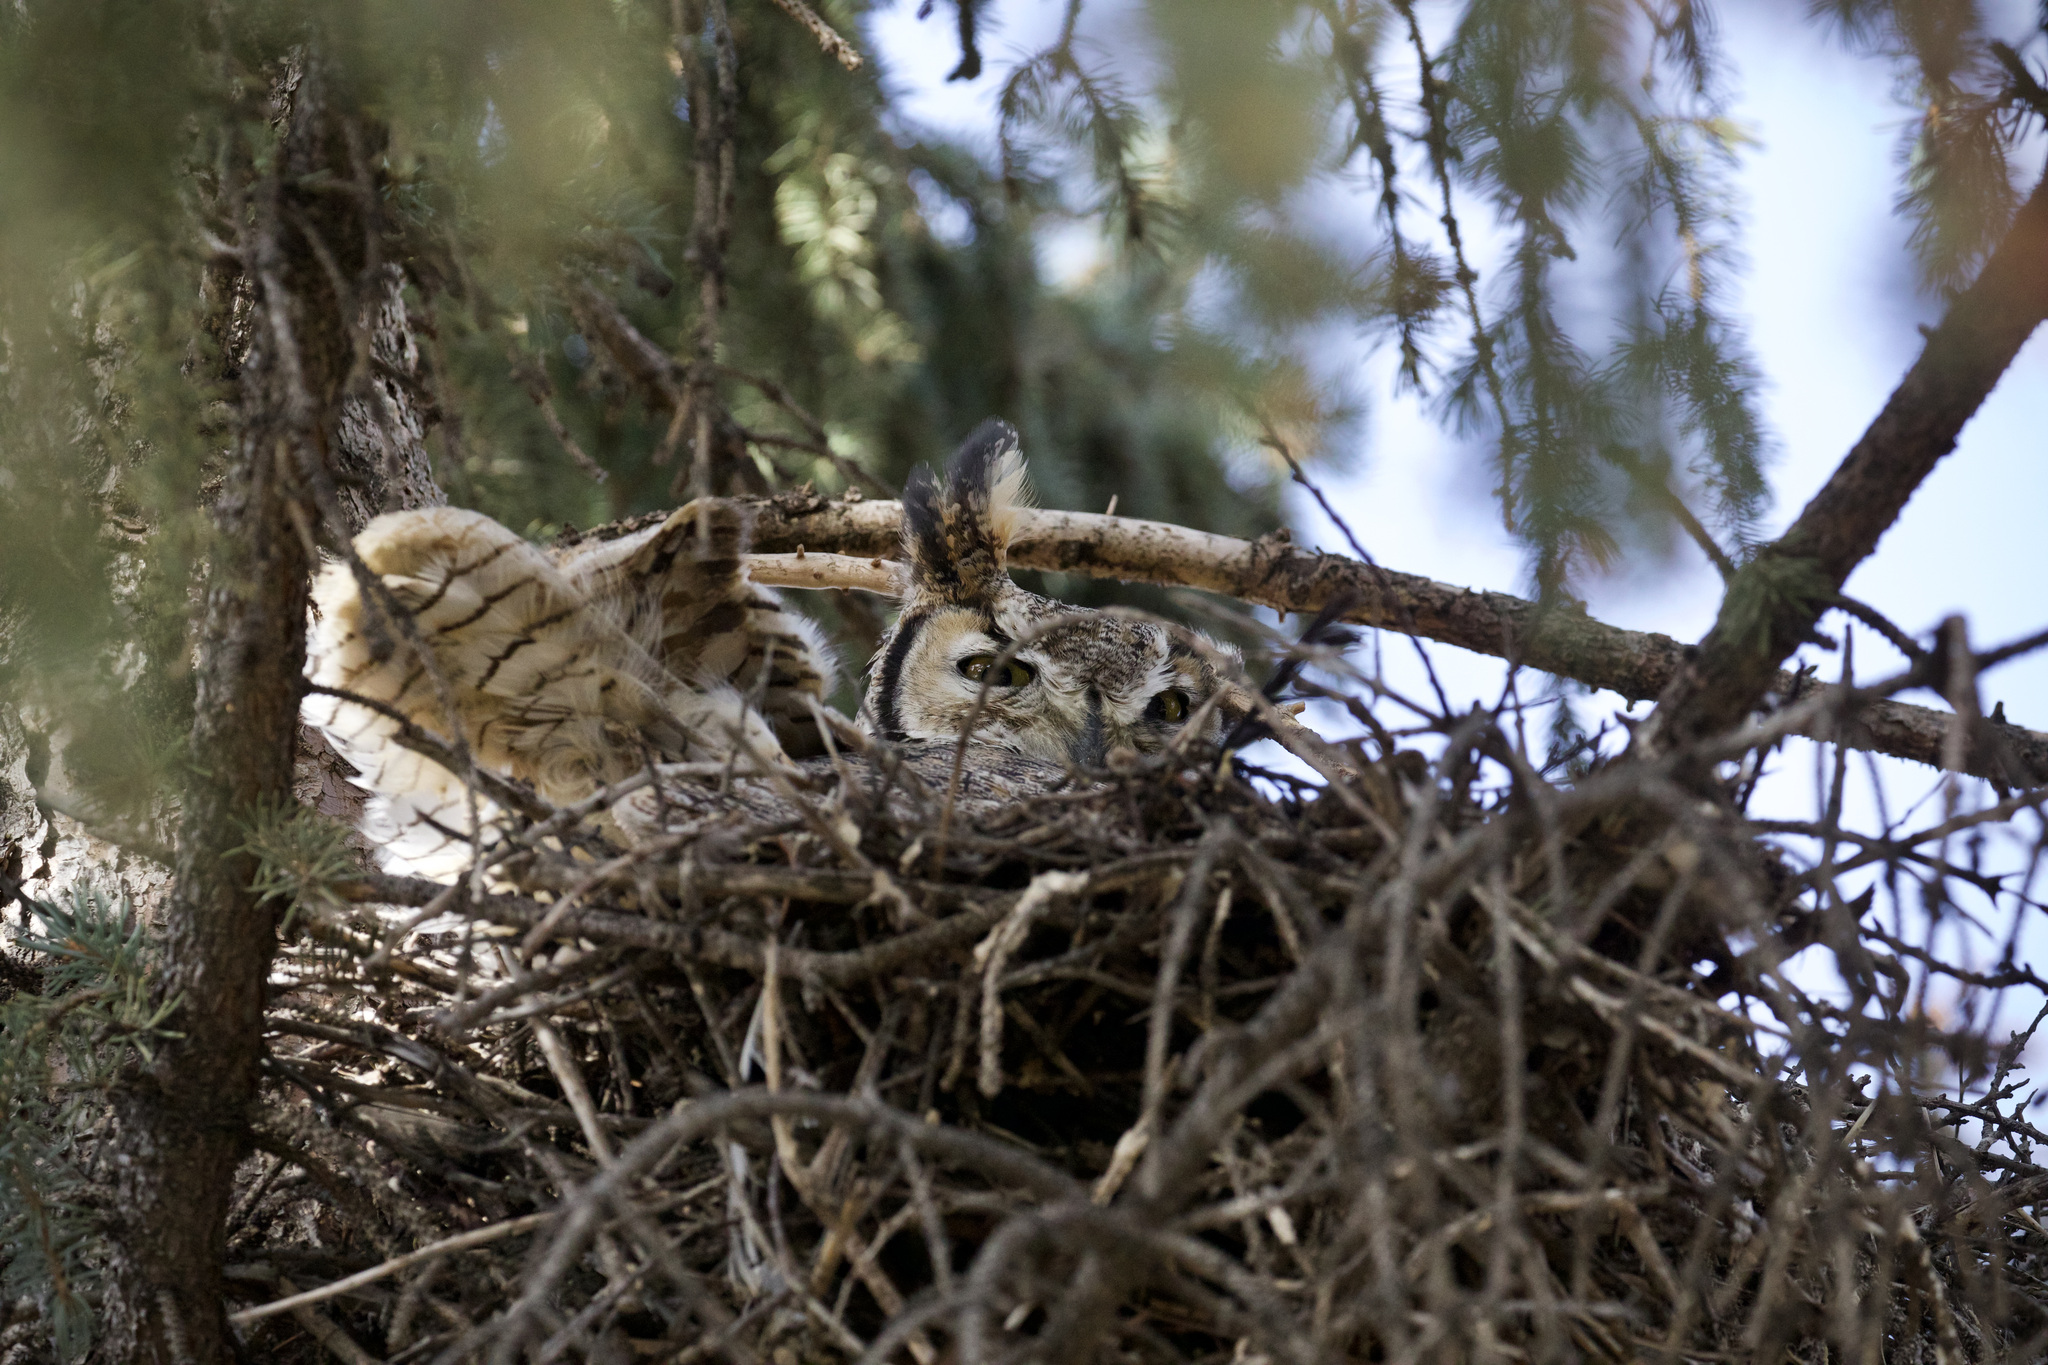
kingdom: Animalia
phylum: Chordata
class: Aves
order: Strigiformes
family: Strigidae
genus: Bubo
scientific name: Bubo virginianus
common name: Great horned owl
